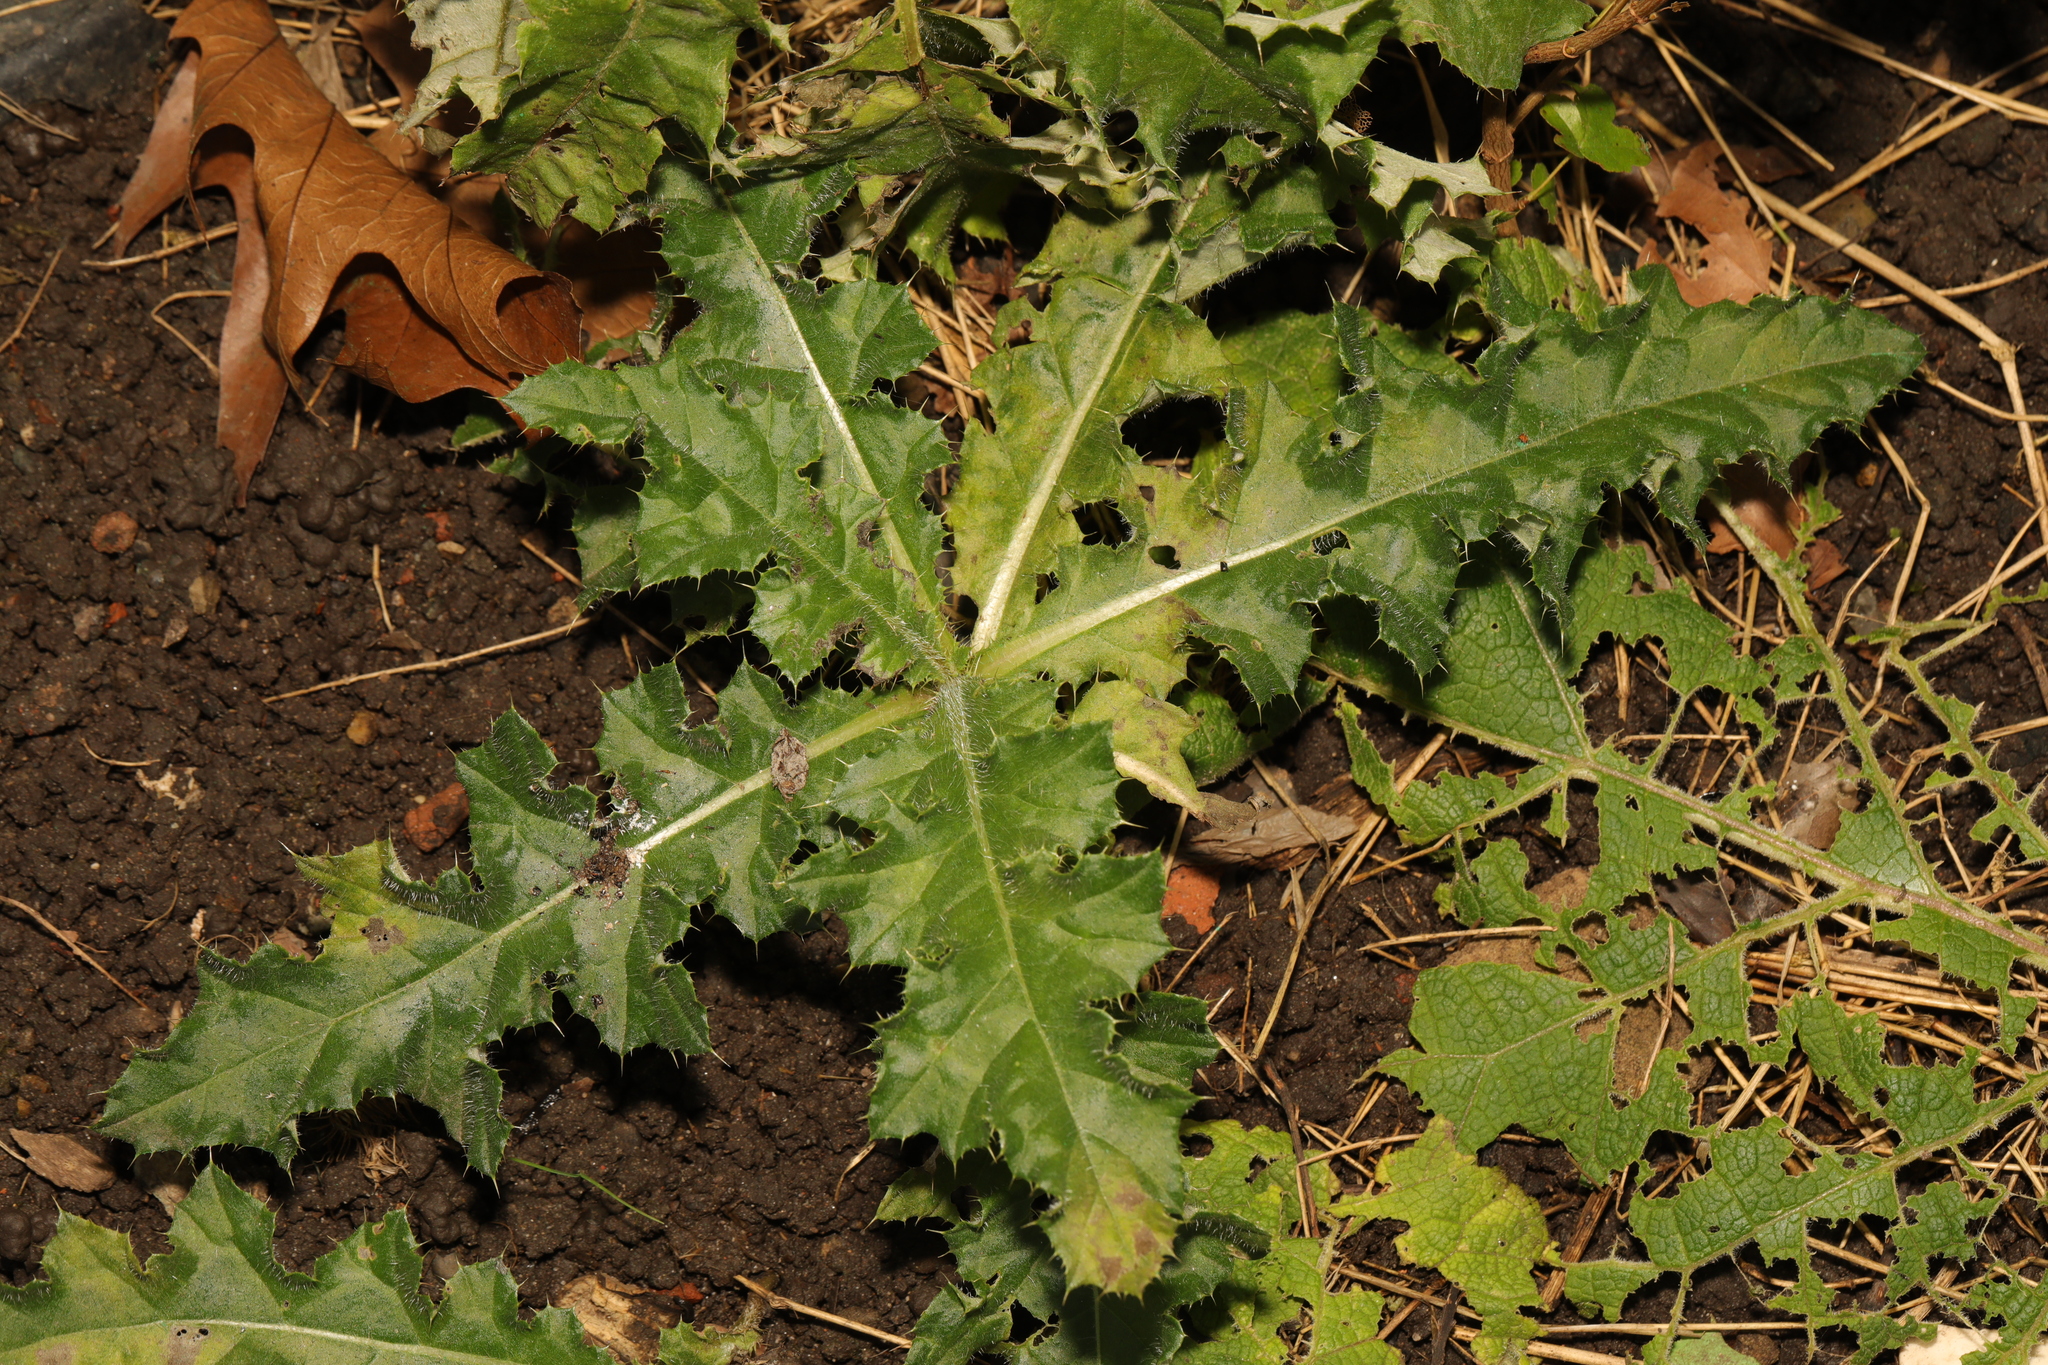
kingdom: Plantae
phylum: Tracheophyta
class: Magnoliopsida
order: Asterales
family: Asteraceae
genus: Cirsium
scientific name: Cirsium arvense
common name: Creeping thistle
